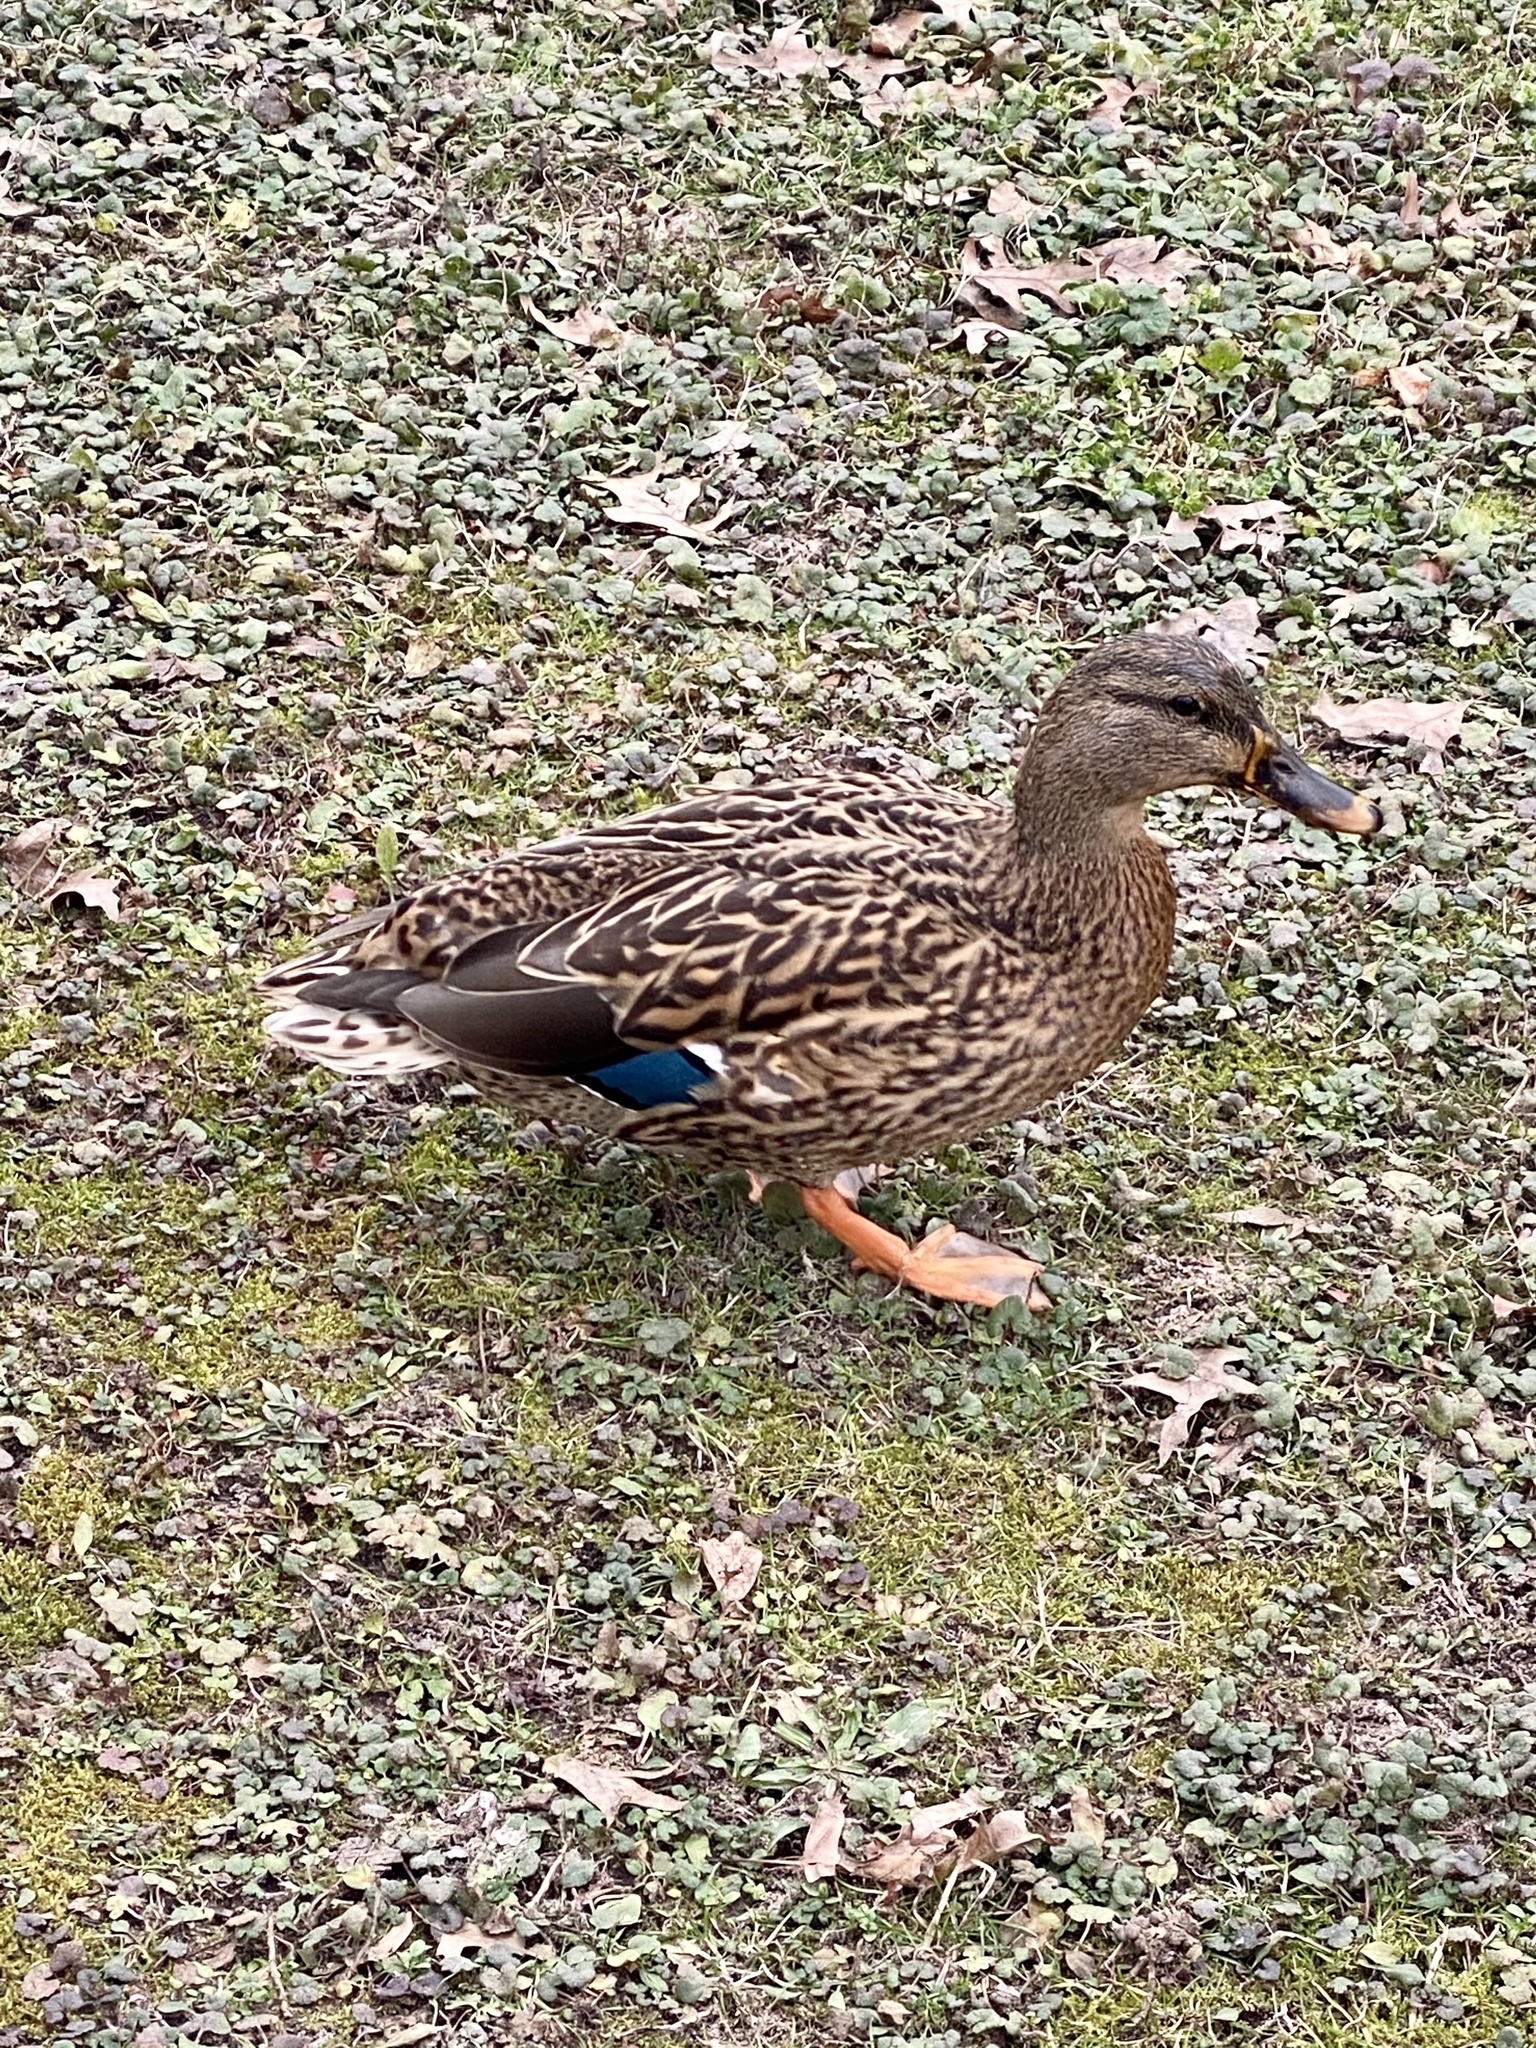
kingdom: Animalia
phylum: Chordata
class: Aves
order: Anseriformes
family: Anatidae
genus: Anas
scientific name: Anas platyrhynchos
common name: Mallard
